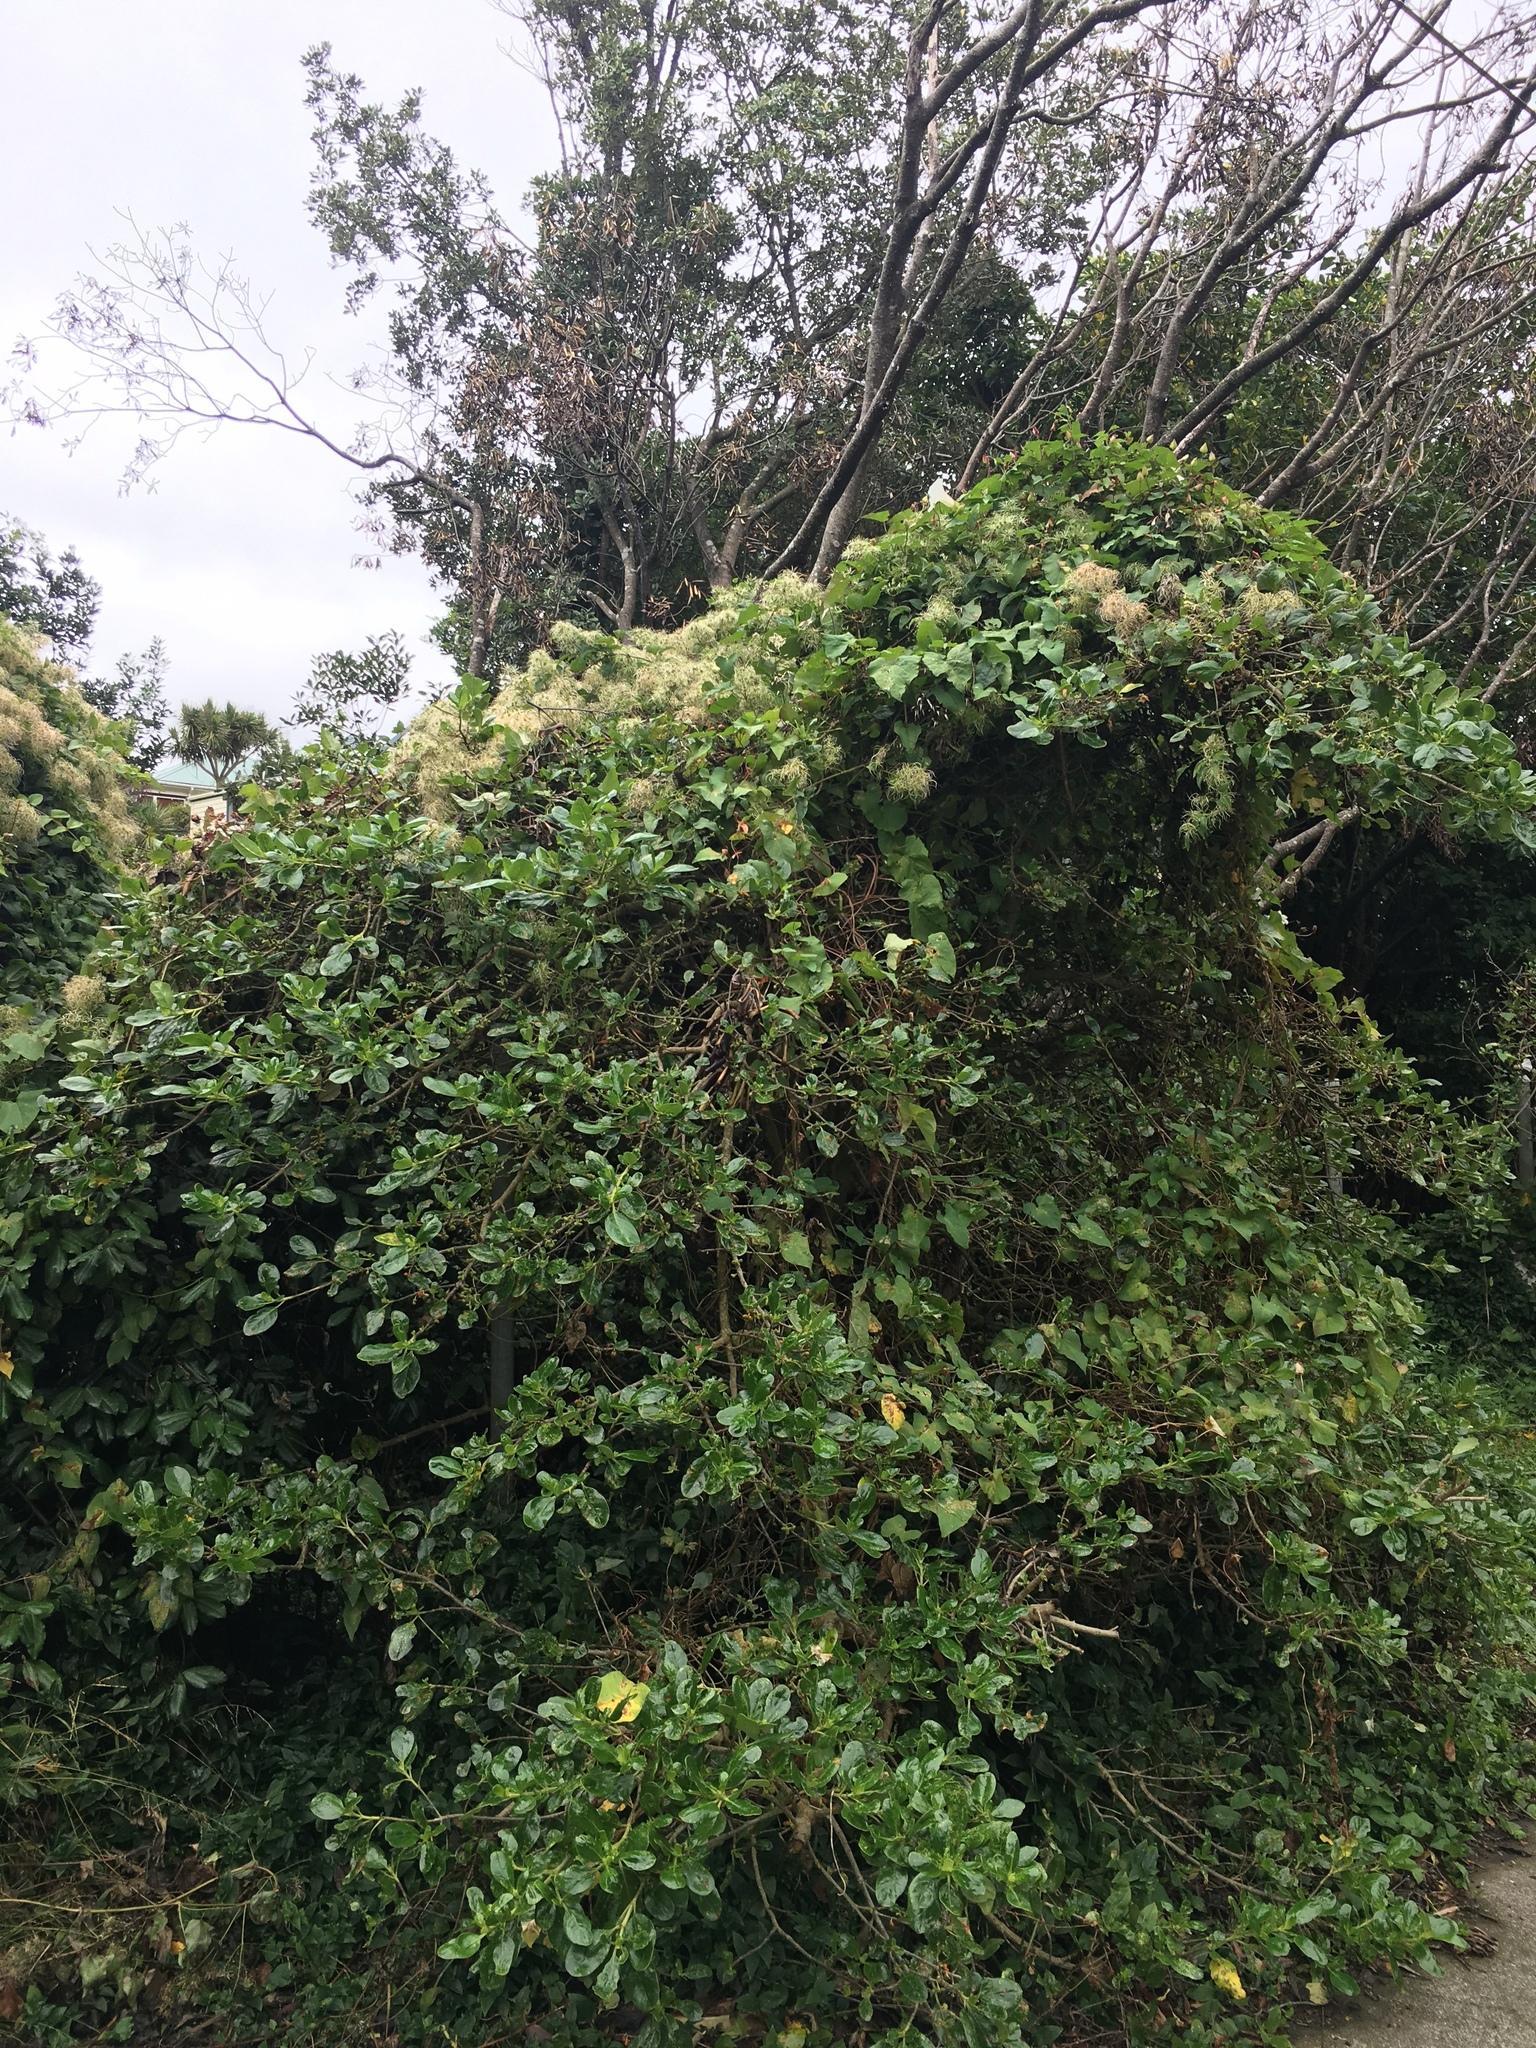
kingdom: Plantae
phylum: Tracheophyta
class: Magnoliopsida
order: Ranunculales
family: Ranunculaceae
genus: Clematis
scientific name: Clematis vitalba
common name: Evergreen clematis
